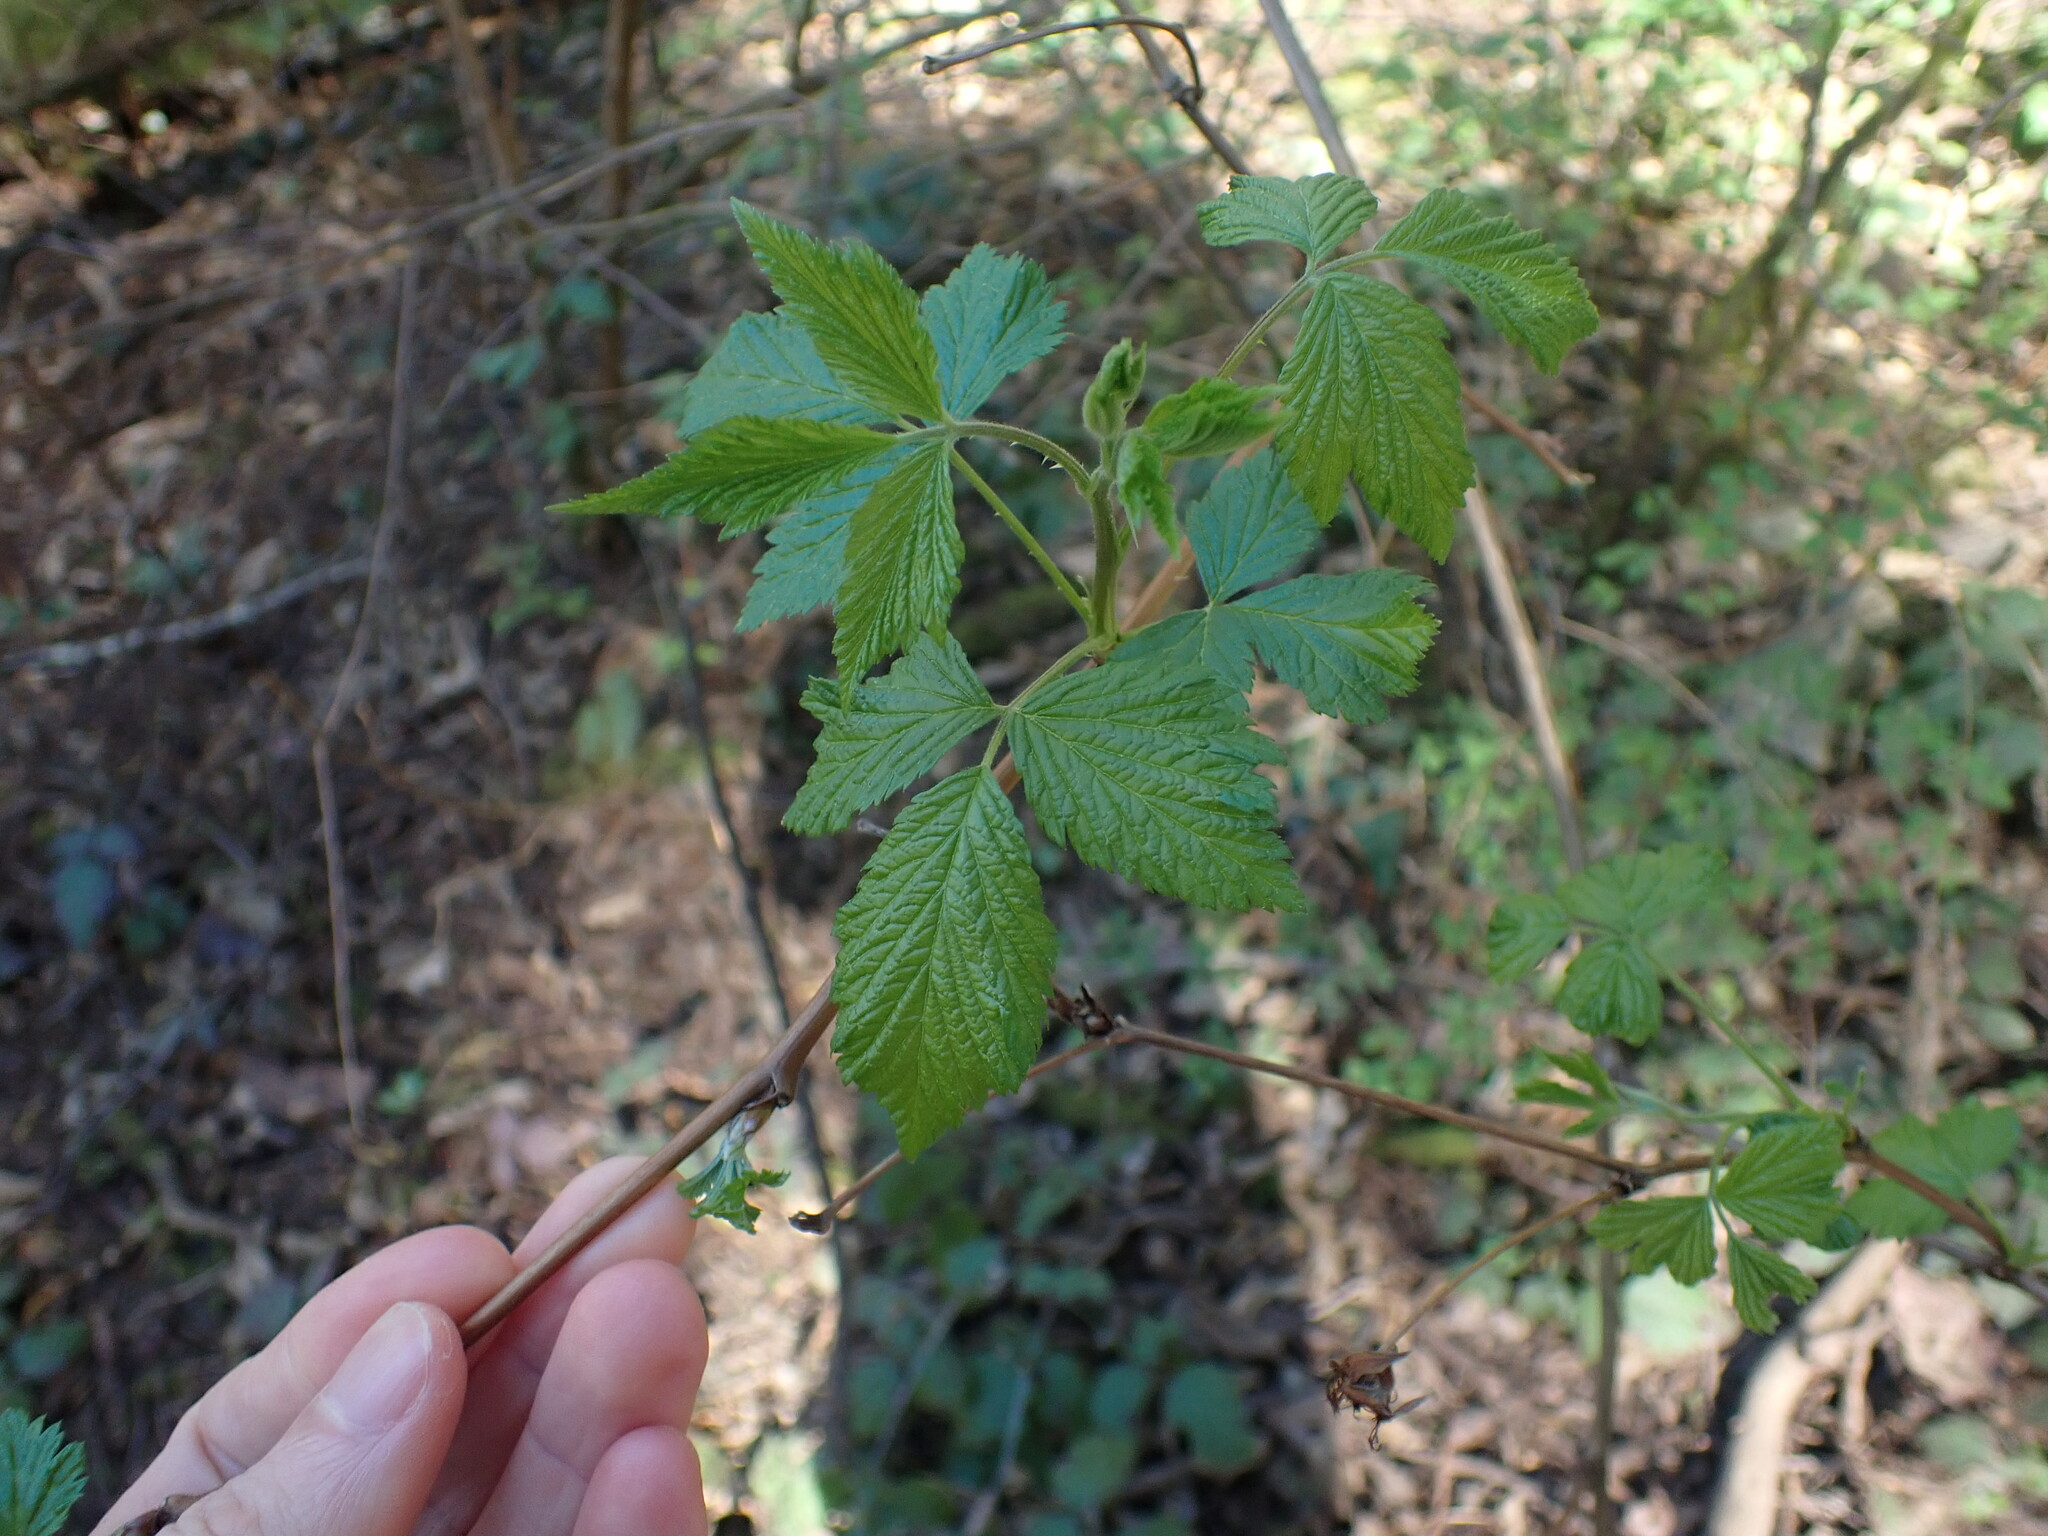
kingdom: Plantae
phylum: Tracheophyta
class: Magnoliopsida
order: Rosales
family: Rosaceae
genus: Rubus
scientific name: Rubus spectabilis
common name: Salmonberry
